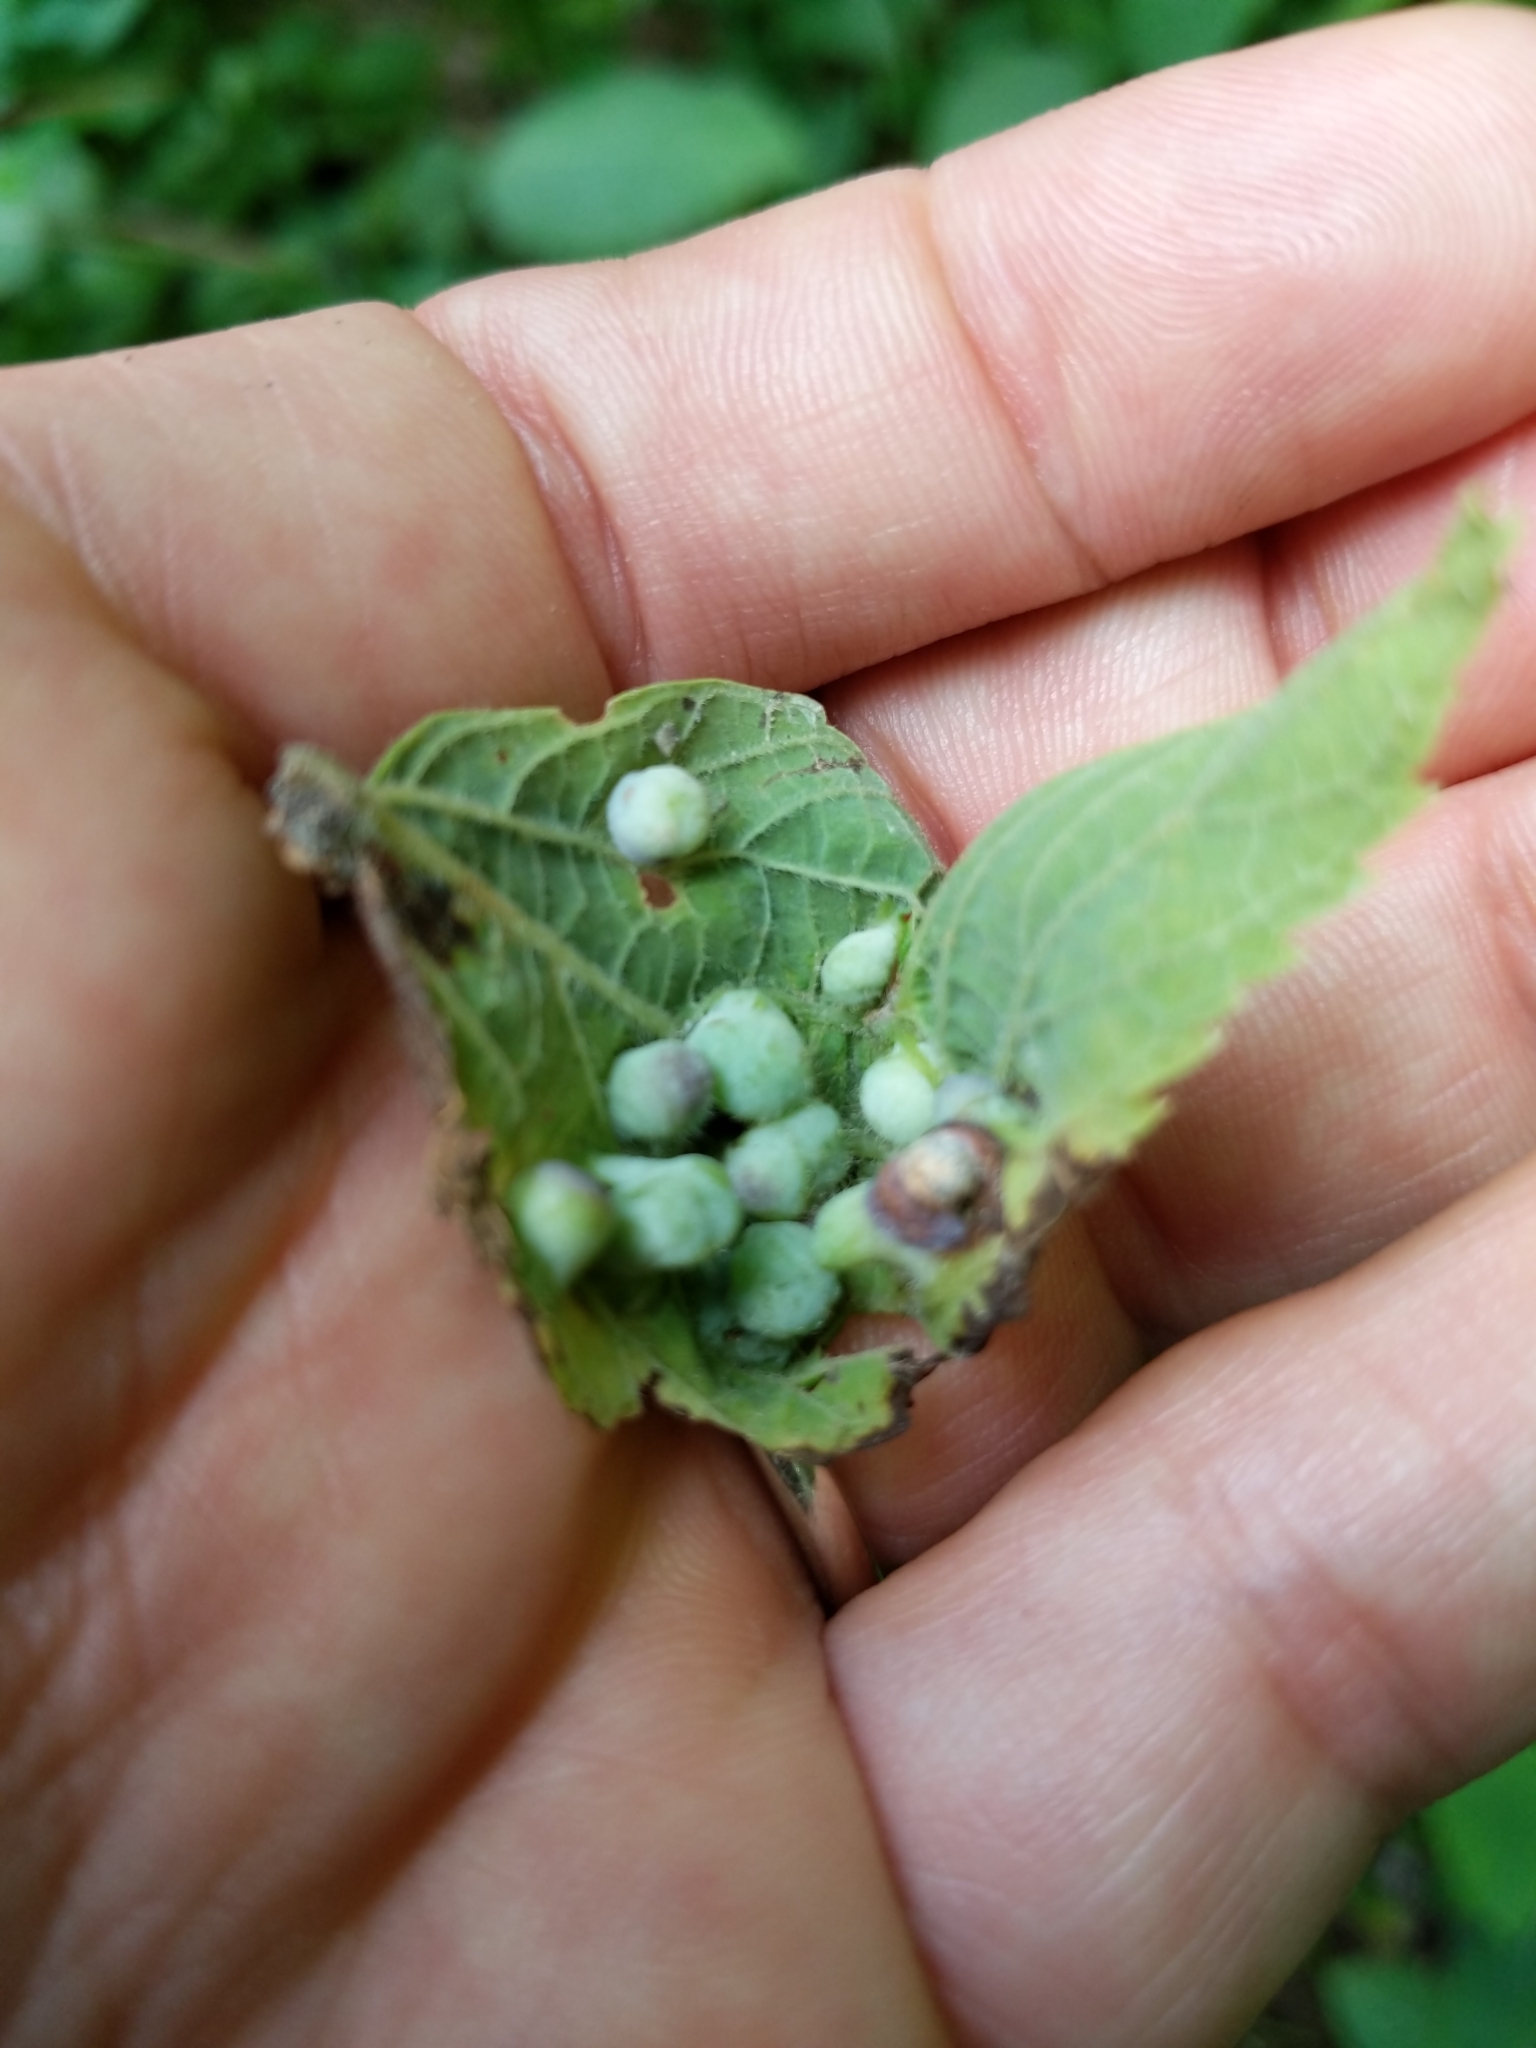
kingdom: Animalia
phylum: Arthropoda
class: Insecta
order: Hemiptera
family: Aphalaridae
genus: Pachypsylla
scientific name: Pachypsylla celtidismamma
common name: Hackberry nipplegall psyllid
